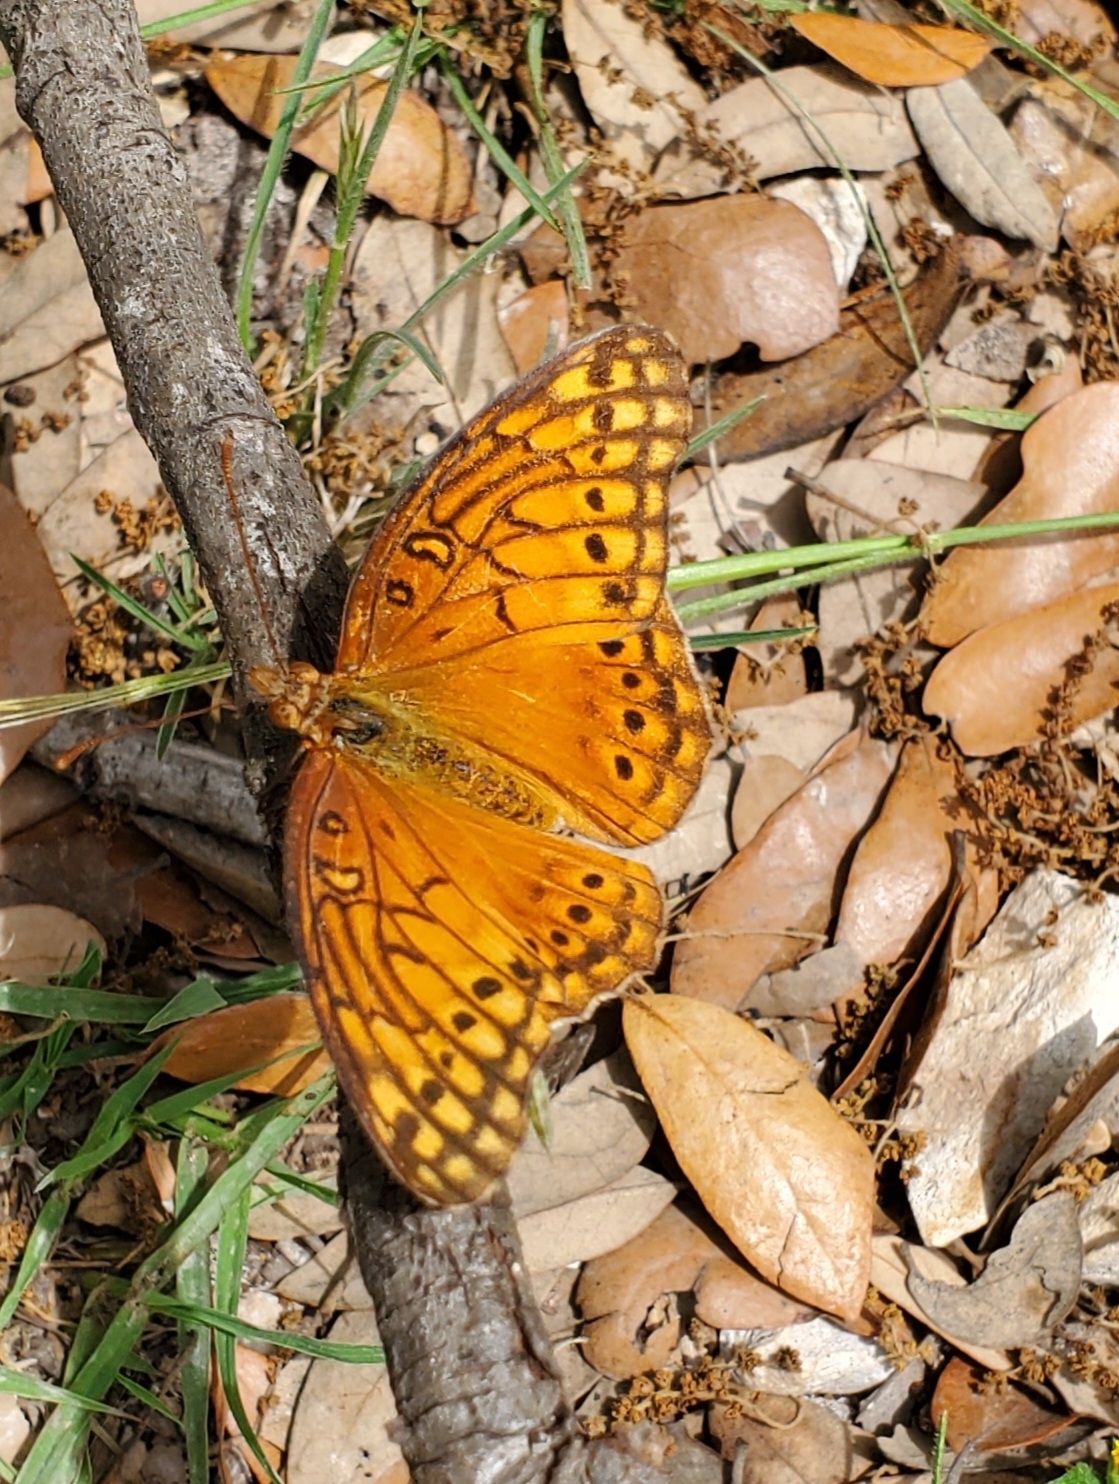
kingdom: Animalia
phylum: Arthropoda
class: Insecta
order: Lepidoptera
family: Nymphalidae
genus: Euptoieta
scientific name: Euptoieta claudia
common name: Variegated fritillary
